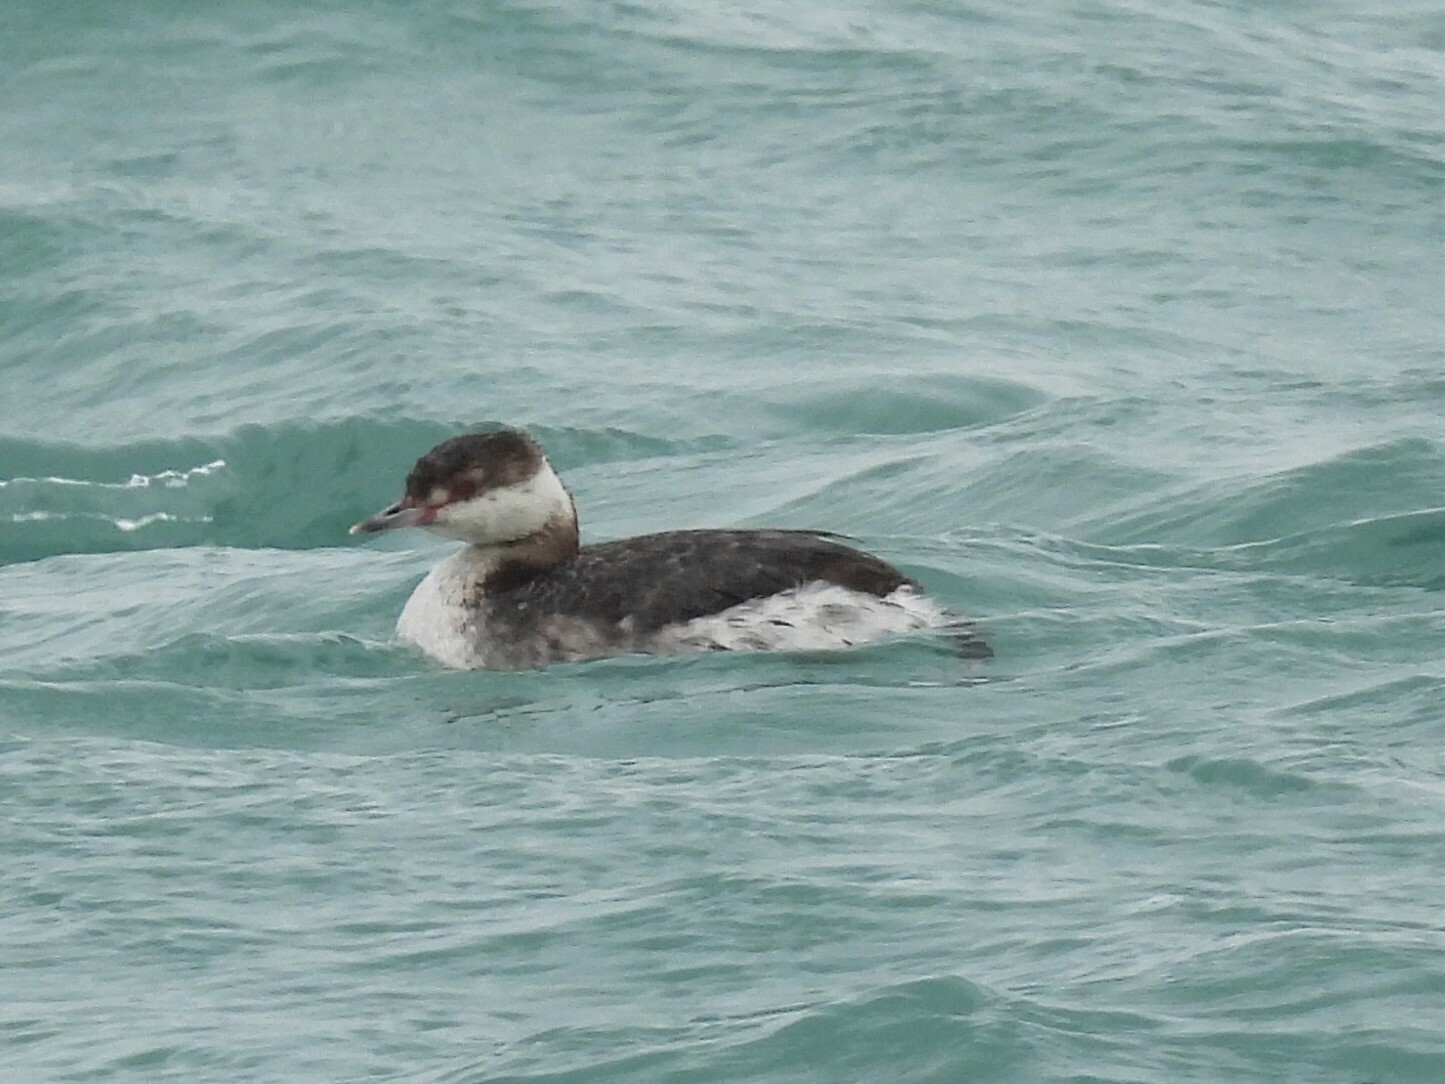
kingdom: Animalia
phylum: Chordata
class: Aves
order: Podicipediformes
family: Podicipedidae
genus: Podiceps
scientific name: Podiceps auritus
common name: Horned grebe
